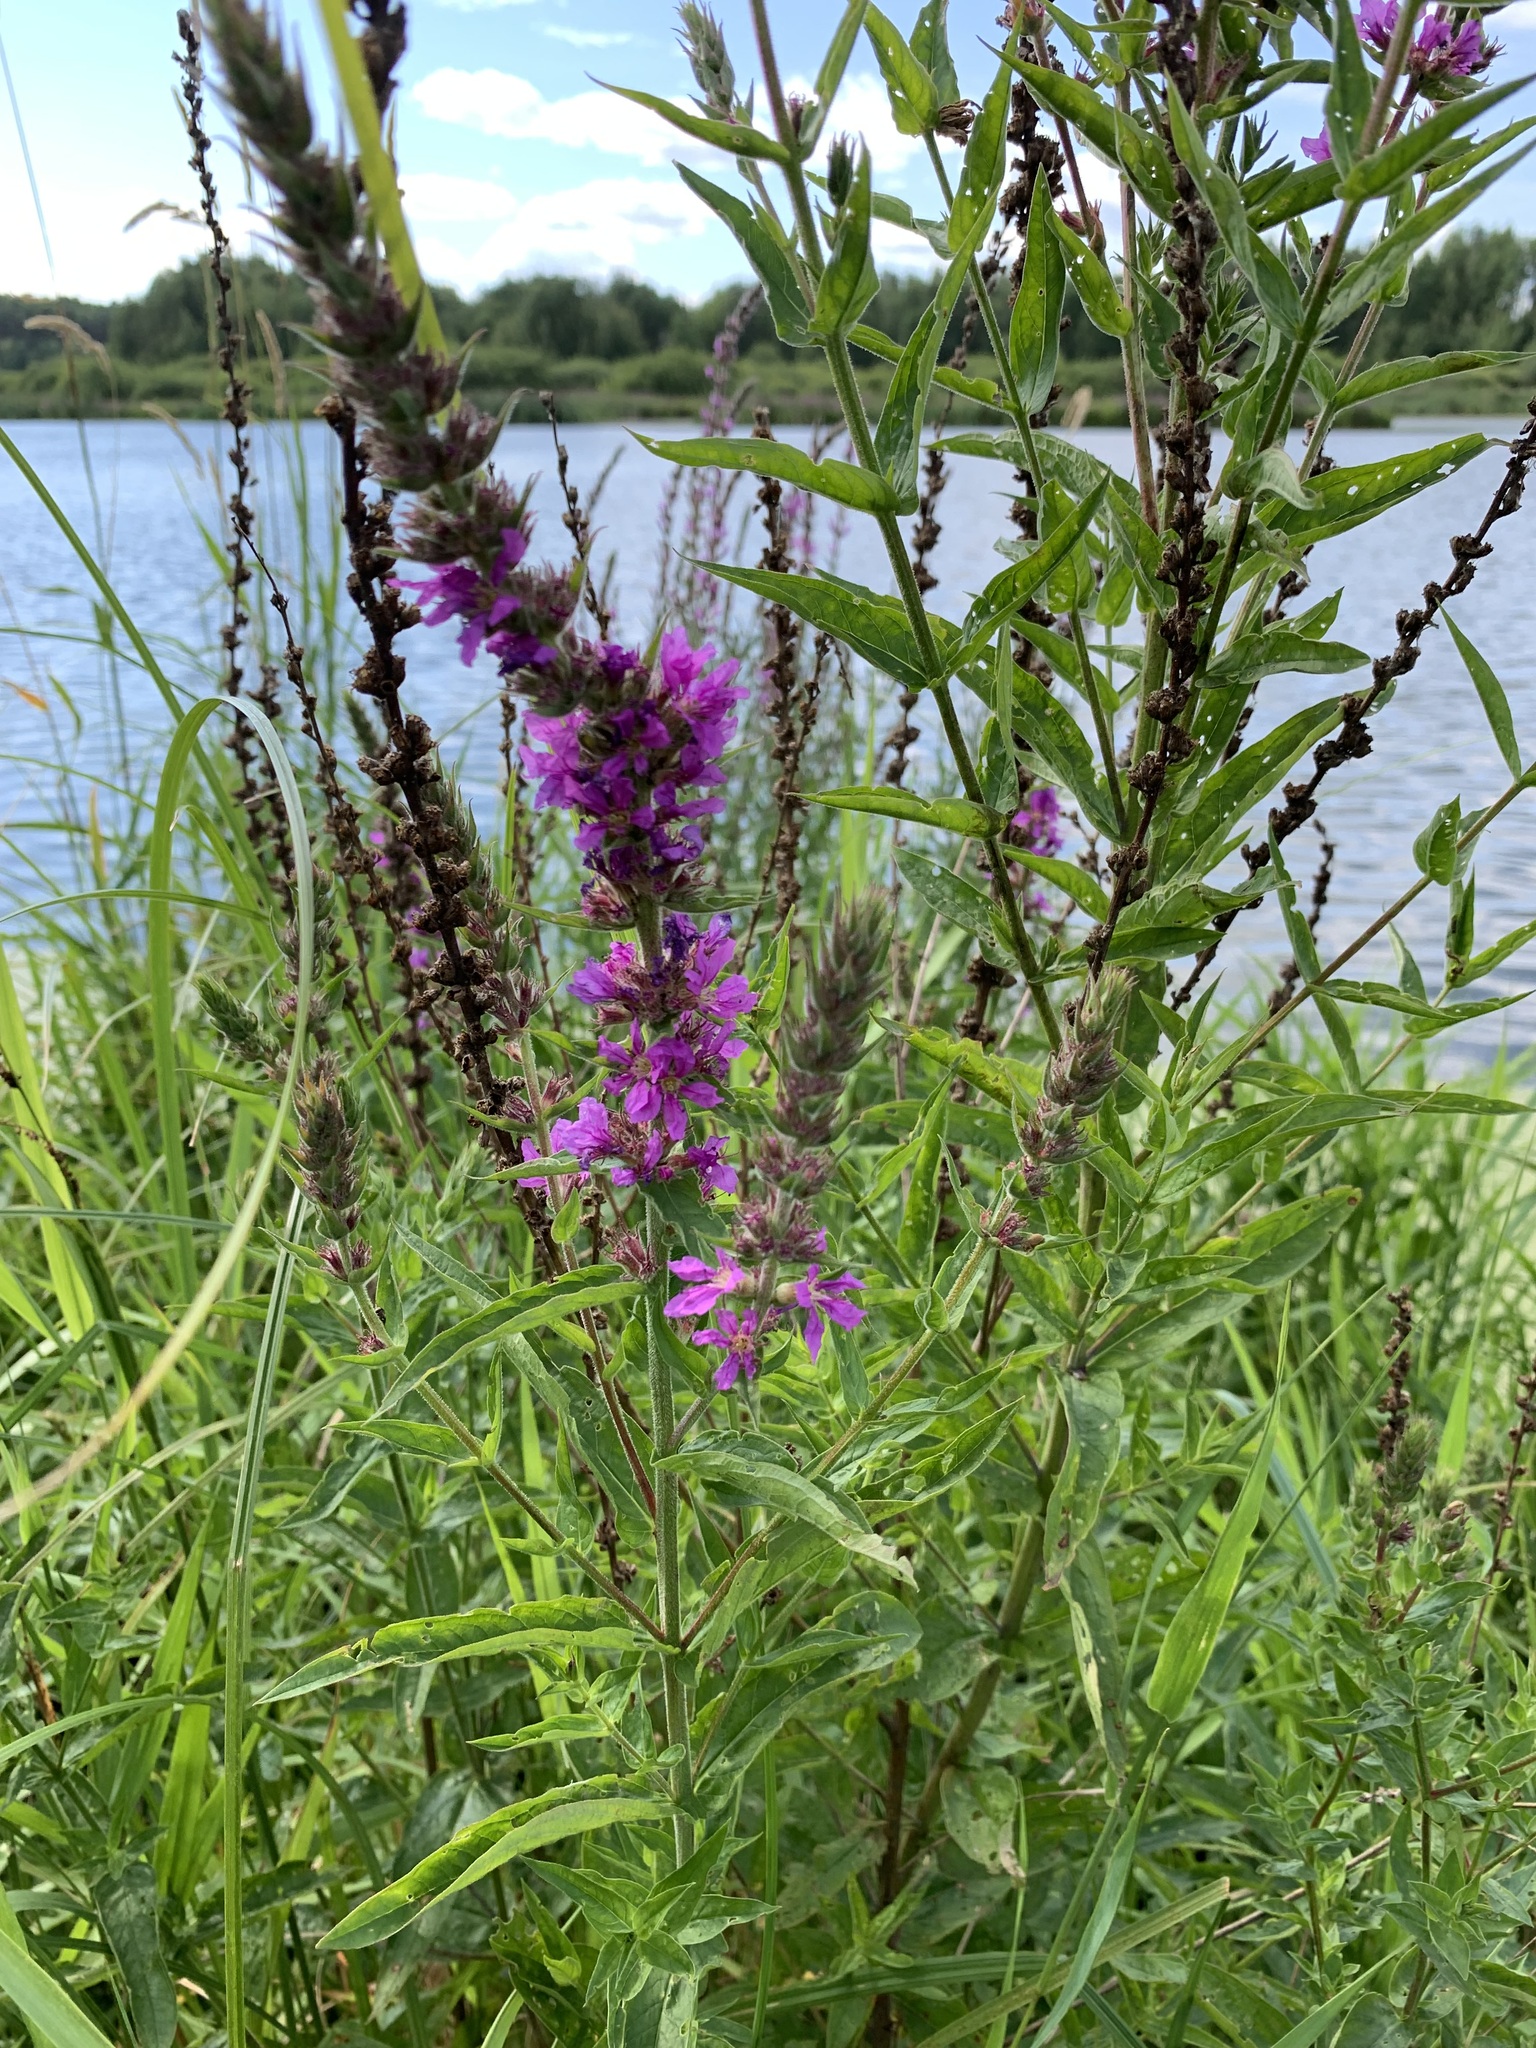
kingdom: Plantae
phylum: Tracheophyta
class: Magnoliopsida
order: Myrtales
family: Lythraceae
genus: Lythrum
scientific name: Lythrum salicaria
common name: Purple loosestrife
